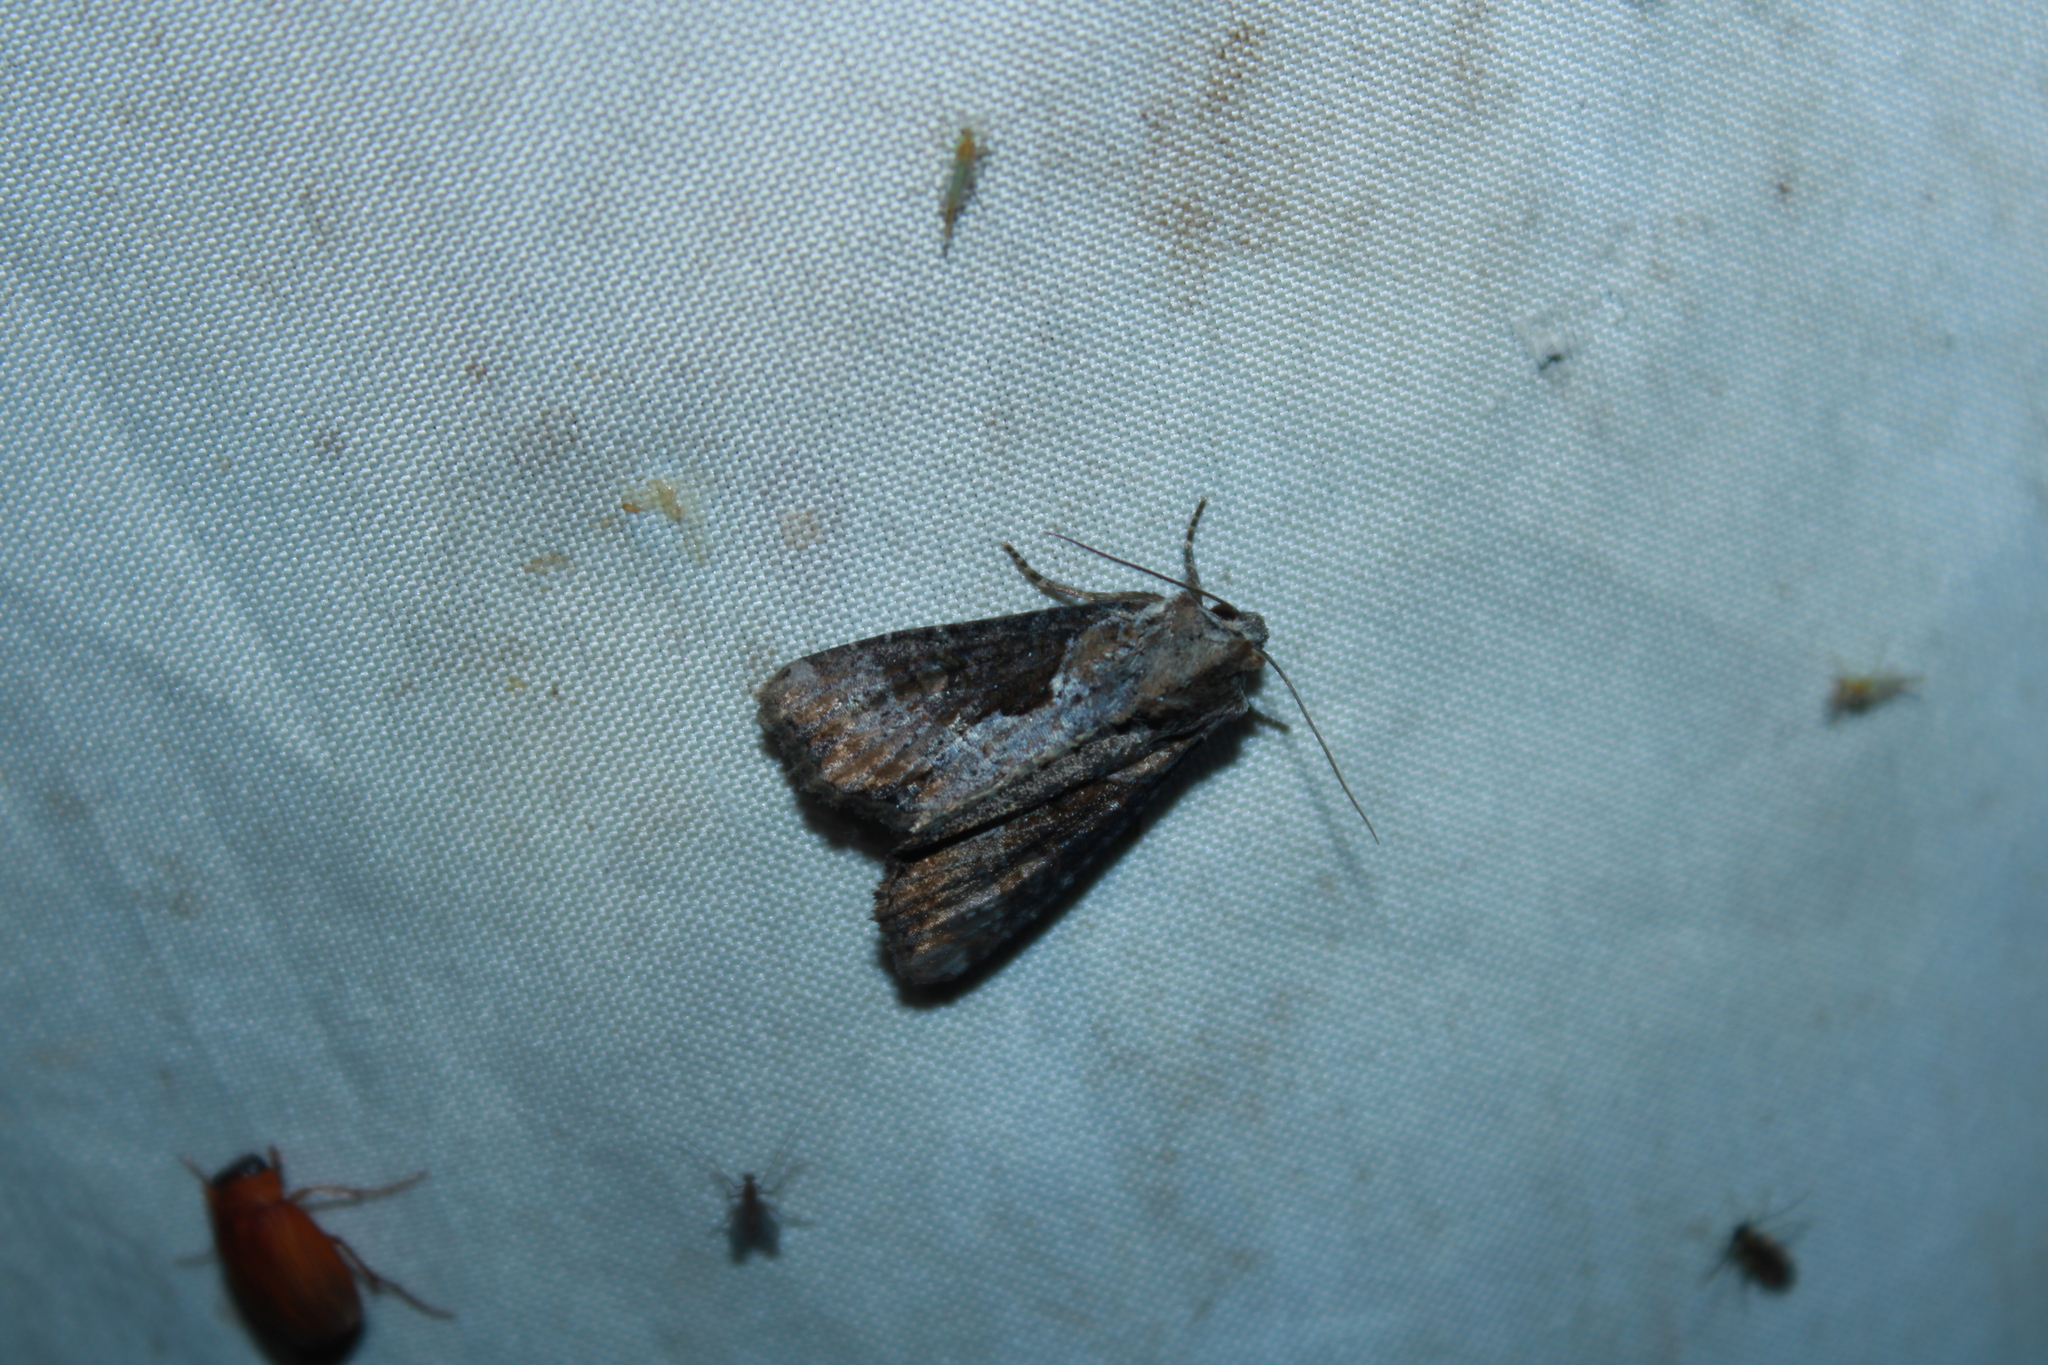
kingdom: Animalia
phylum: Arthropoda
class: Insecta
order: Lepidoptera
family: Noctuidae
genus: Lateroligia
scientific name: Lateroligia ophiogramma
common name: Double lobed
